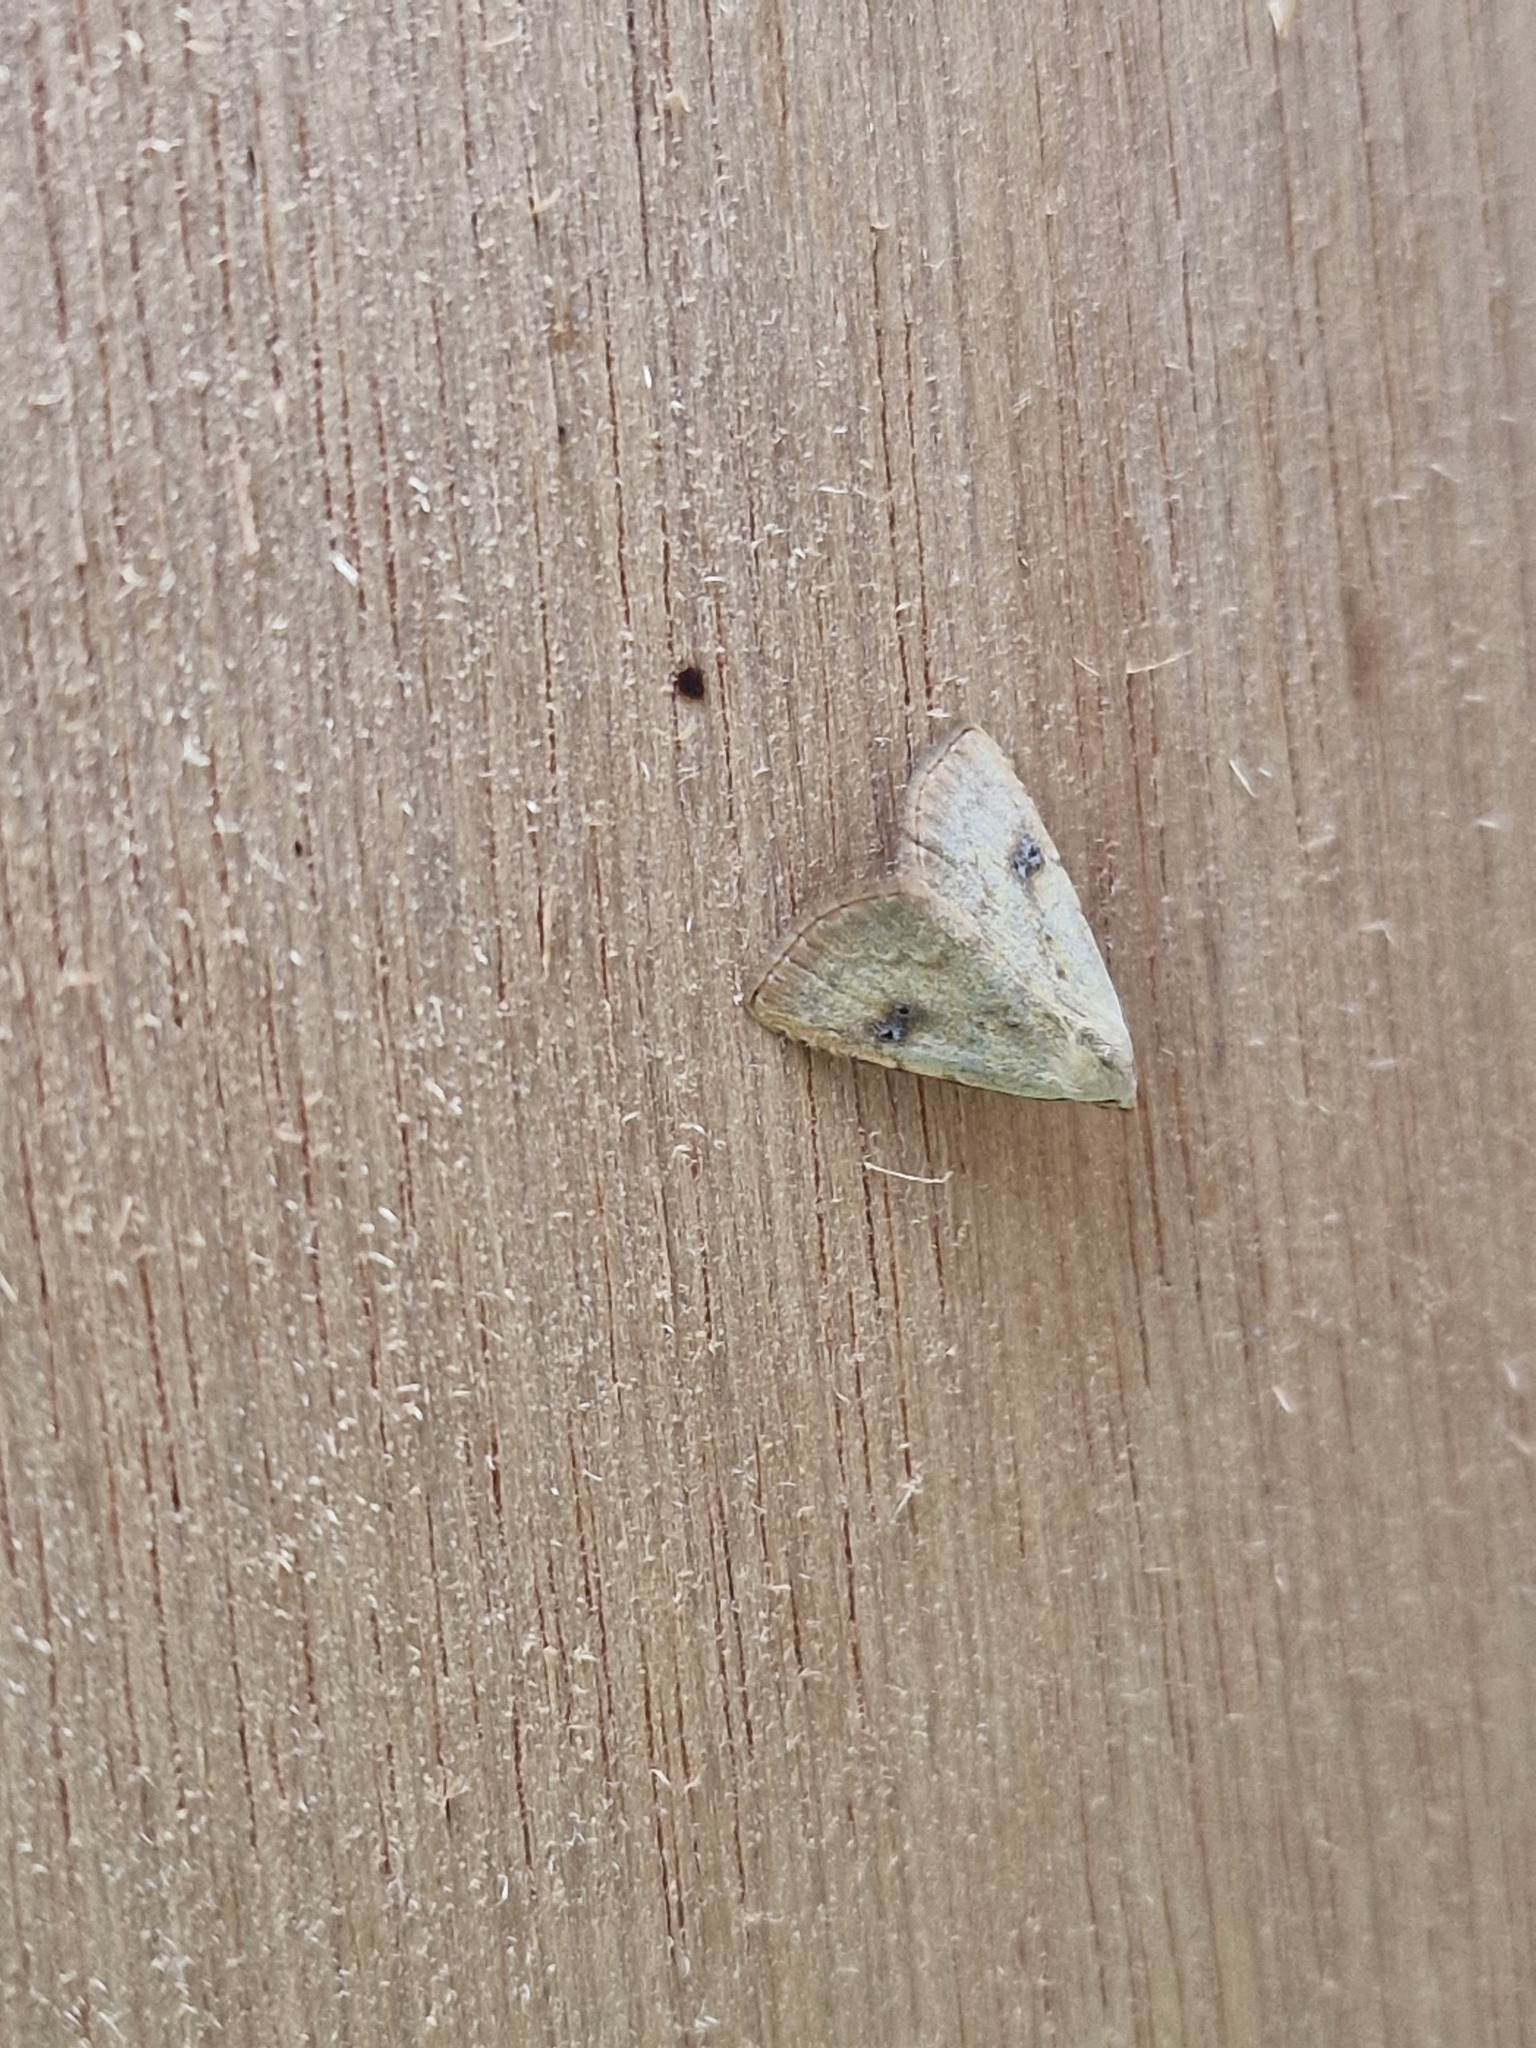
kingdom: Animalia
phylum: Arthropoda
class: Insecta
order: Lepidoptera
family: Erebidae
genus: Rivula
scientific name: Rivula sericealis
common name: Straw dot
